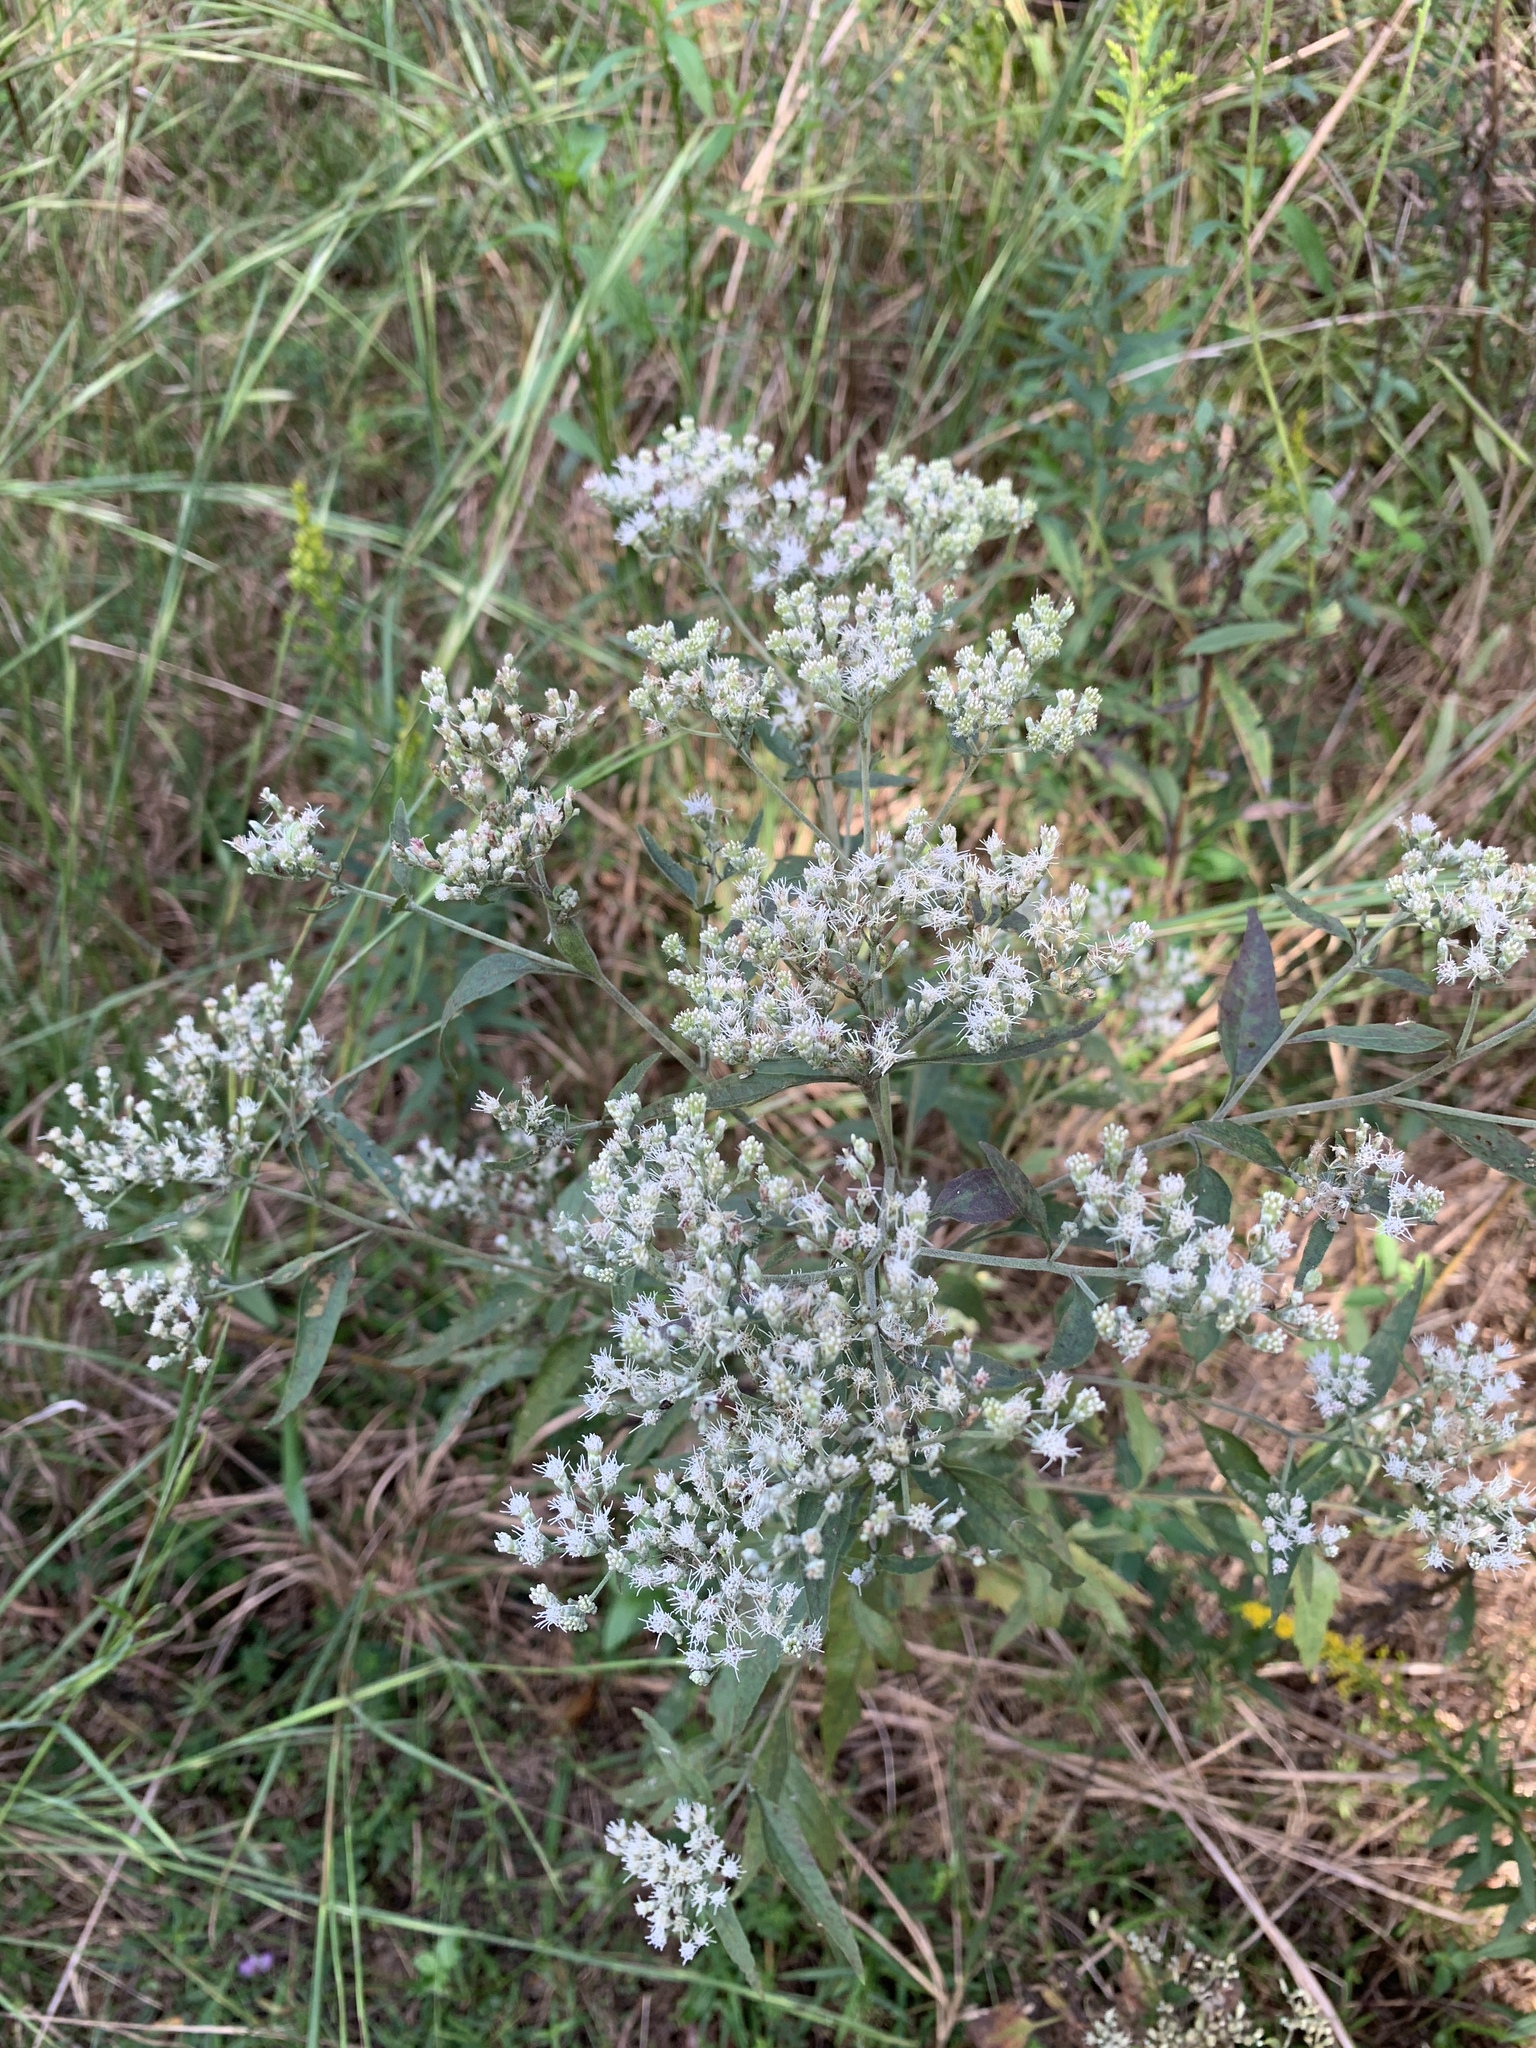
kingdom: Plantae
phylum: Tracheophyta
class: Magnoliopsida
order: Asterales
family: Asteraceae
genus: Eupatorium
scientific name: Eupatorium serotinum
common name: Late boneset
